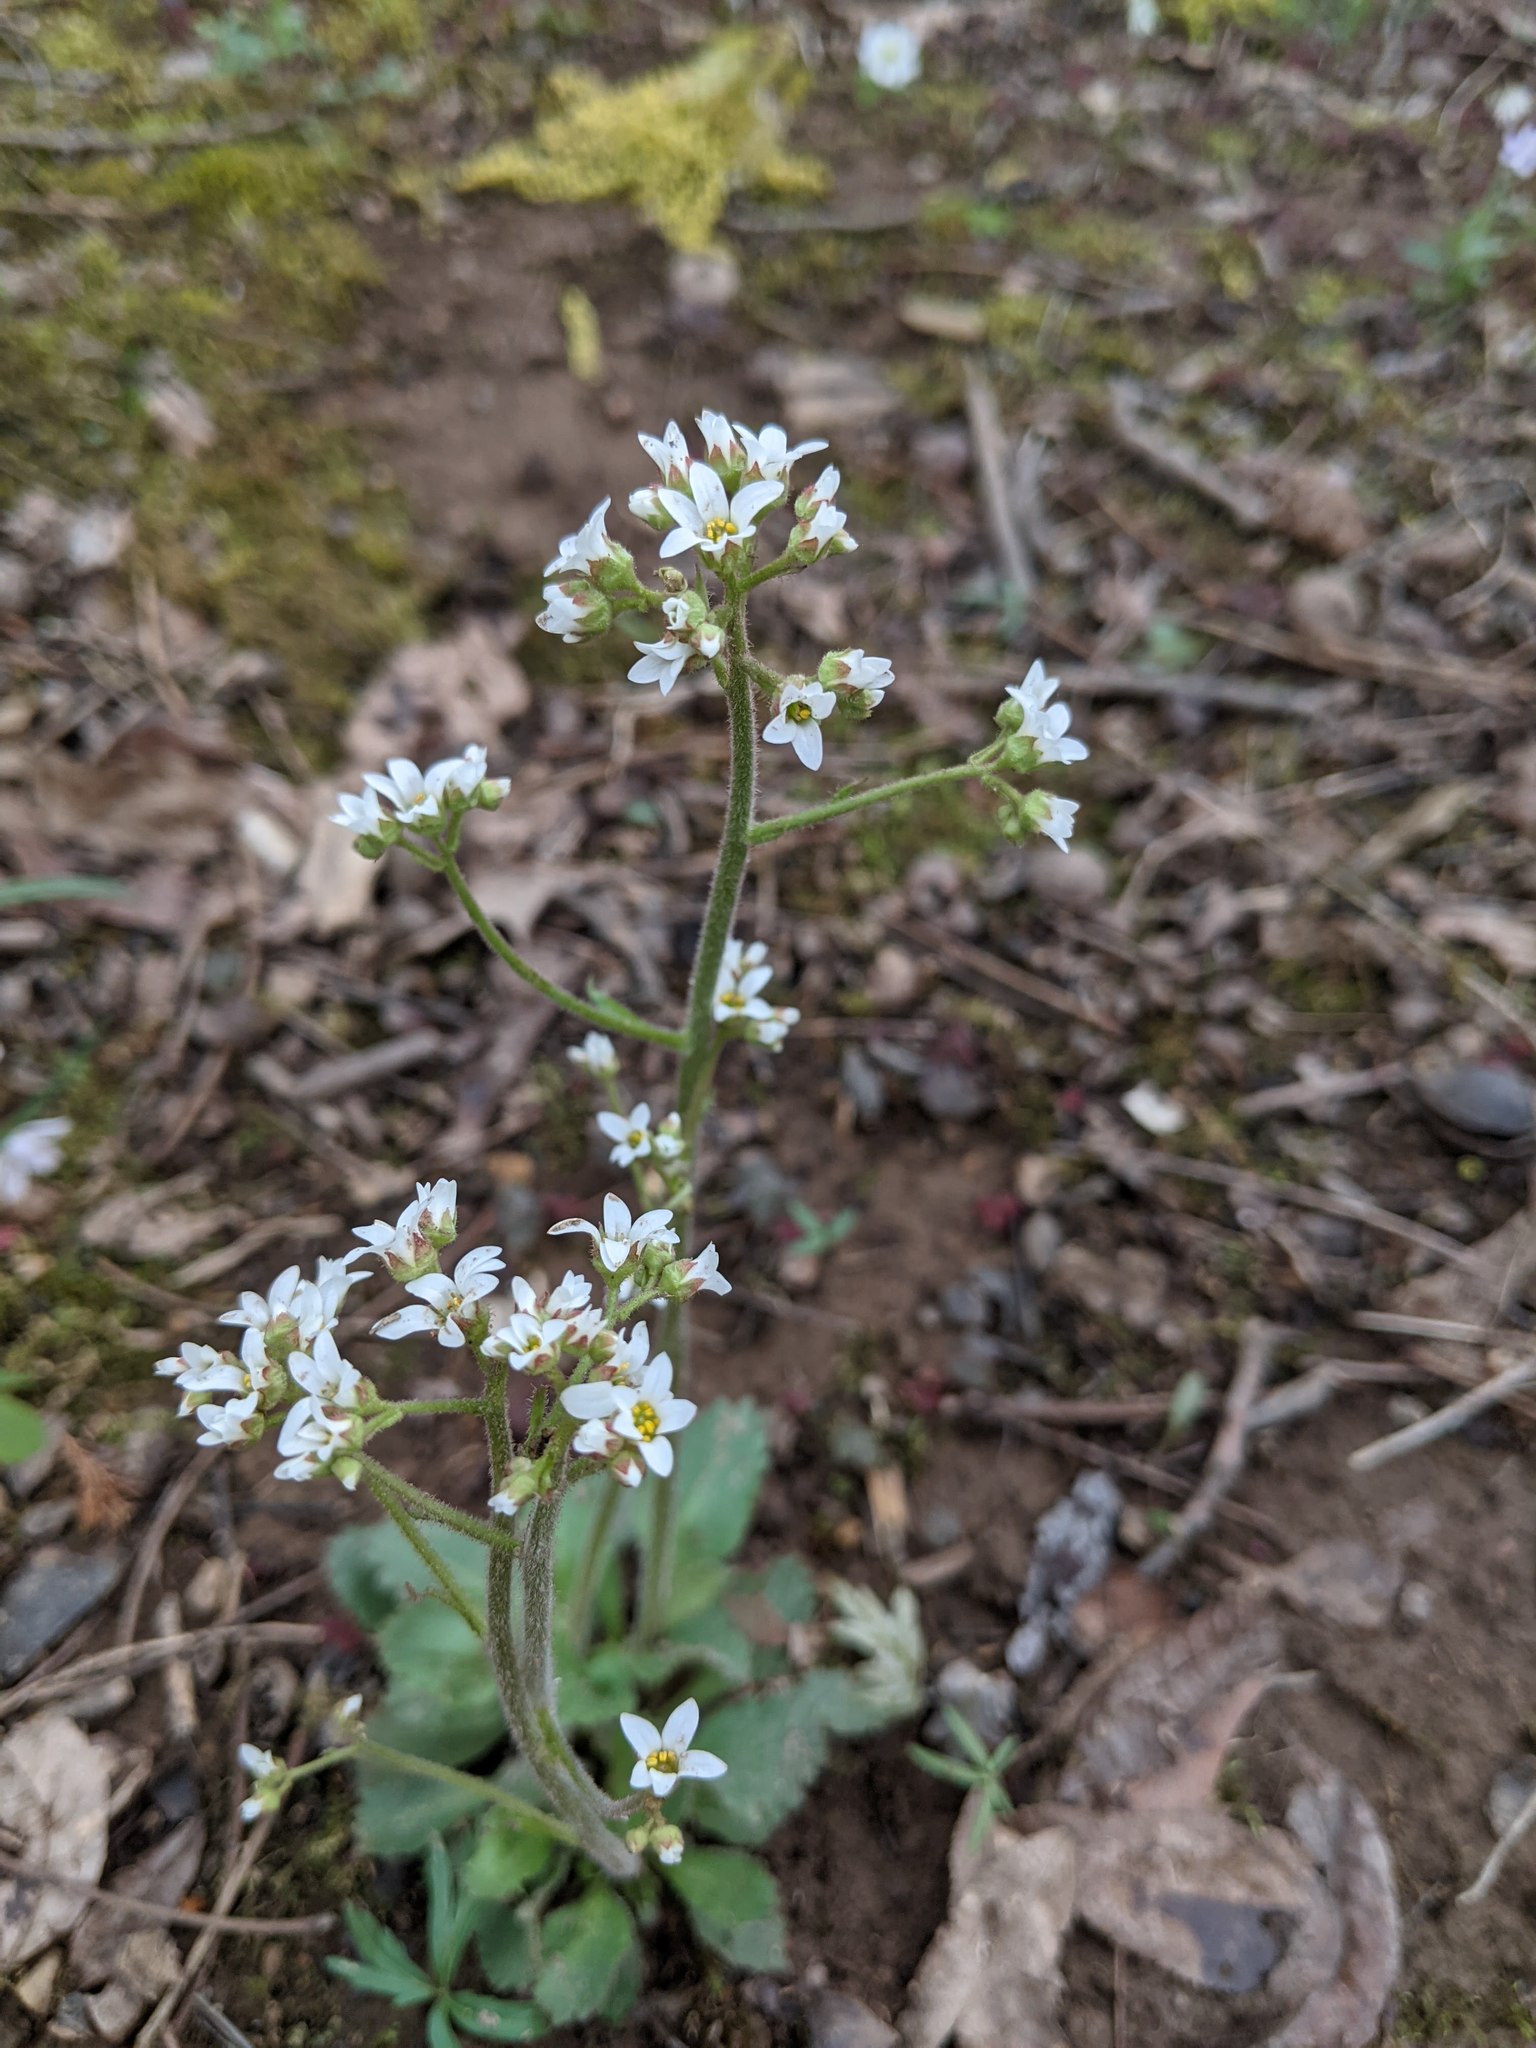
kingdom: Plantae
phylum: Tracheophyta
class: Magnoliopsida
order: Saxifragales
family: Saxifragaceae
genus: Micranthes
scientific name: Micranthes virginiensis
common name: Early saxifrage
